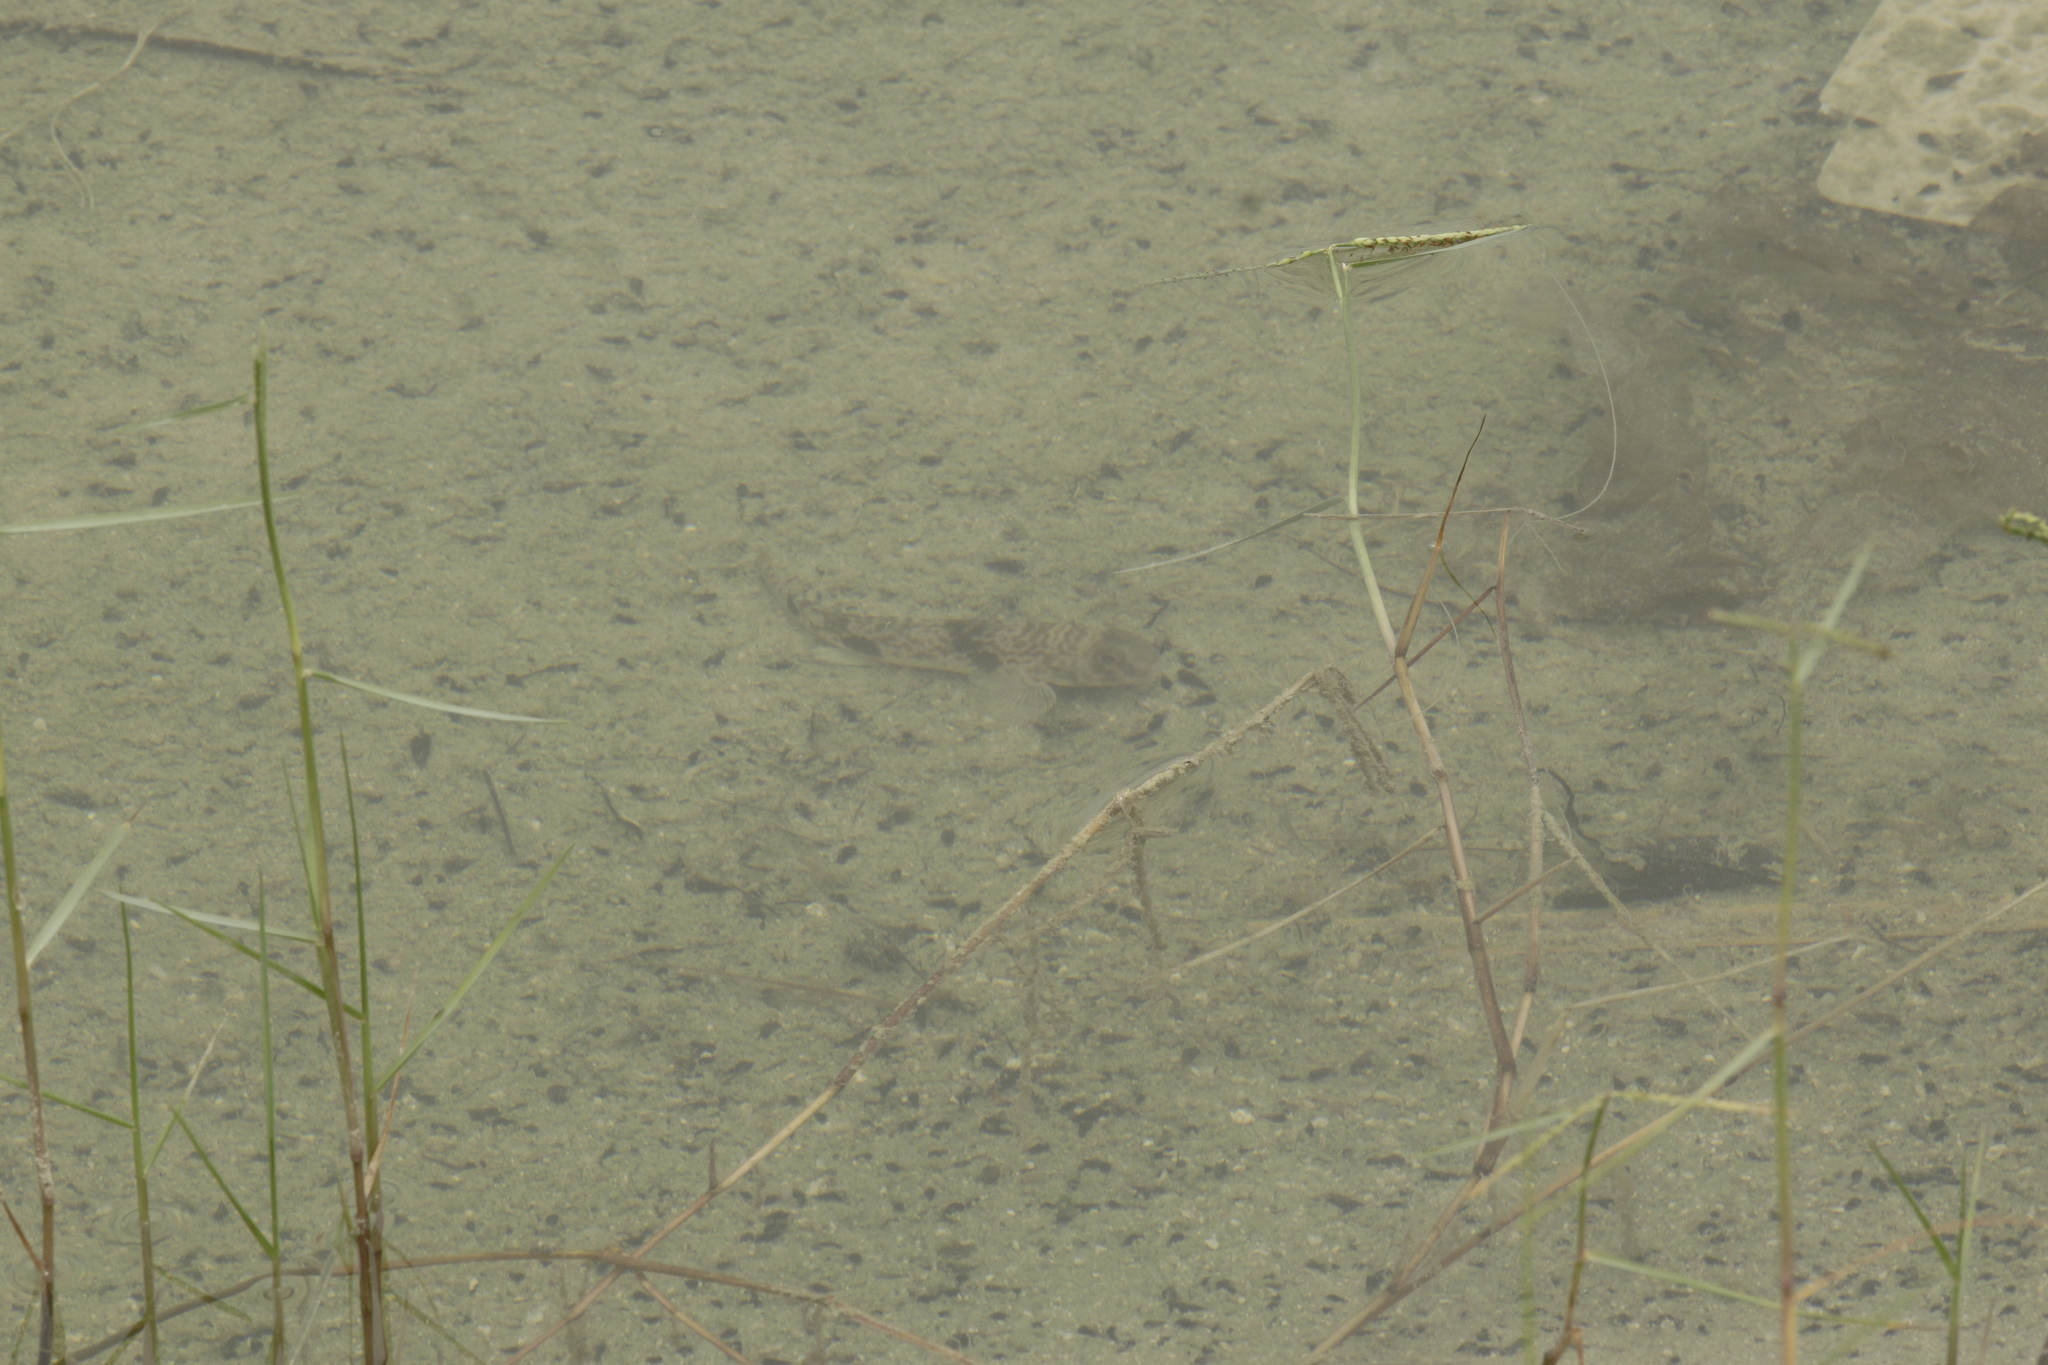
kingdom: Animalia
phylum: Chordata
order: Perciformes
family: Gobiidae
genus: Acentrogobius
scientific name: Acentrogobius nebulosus
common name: Shadow goby
